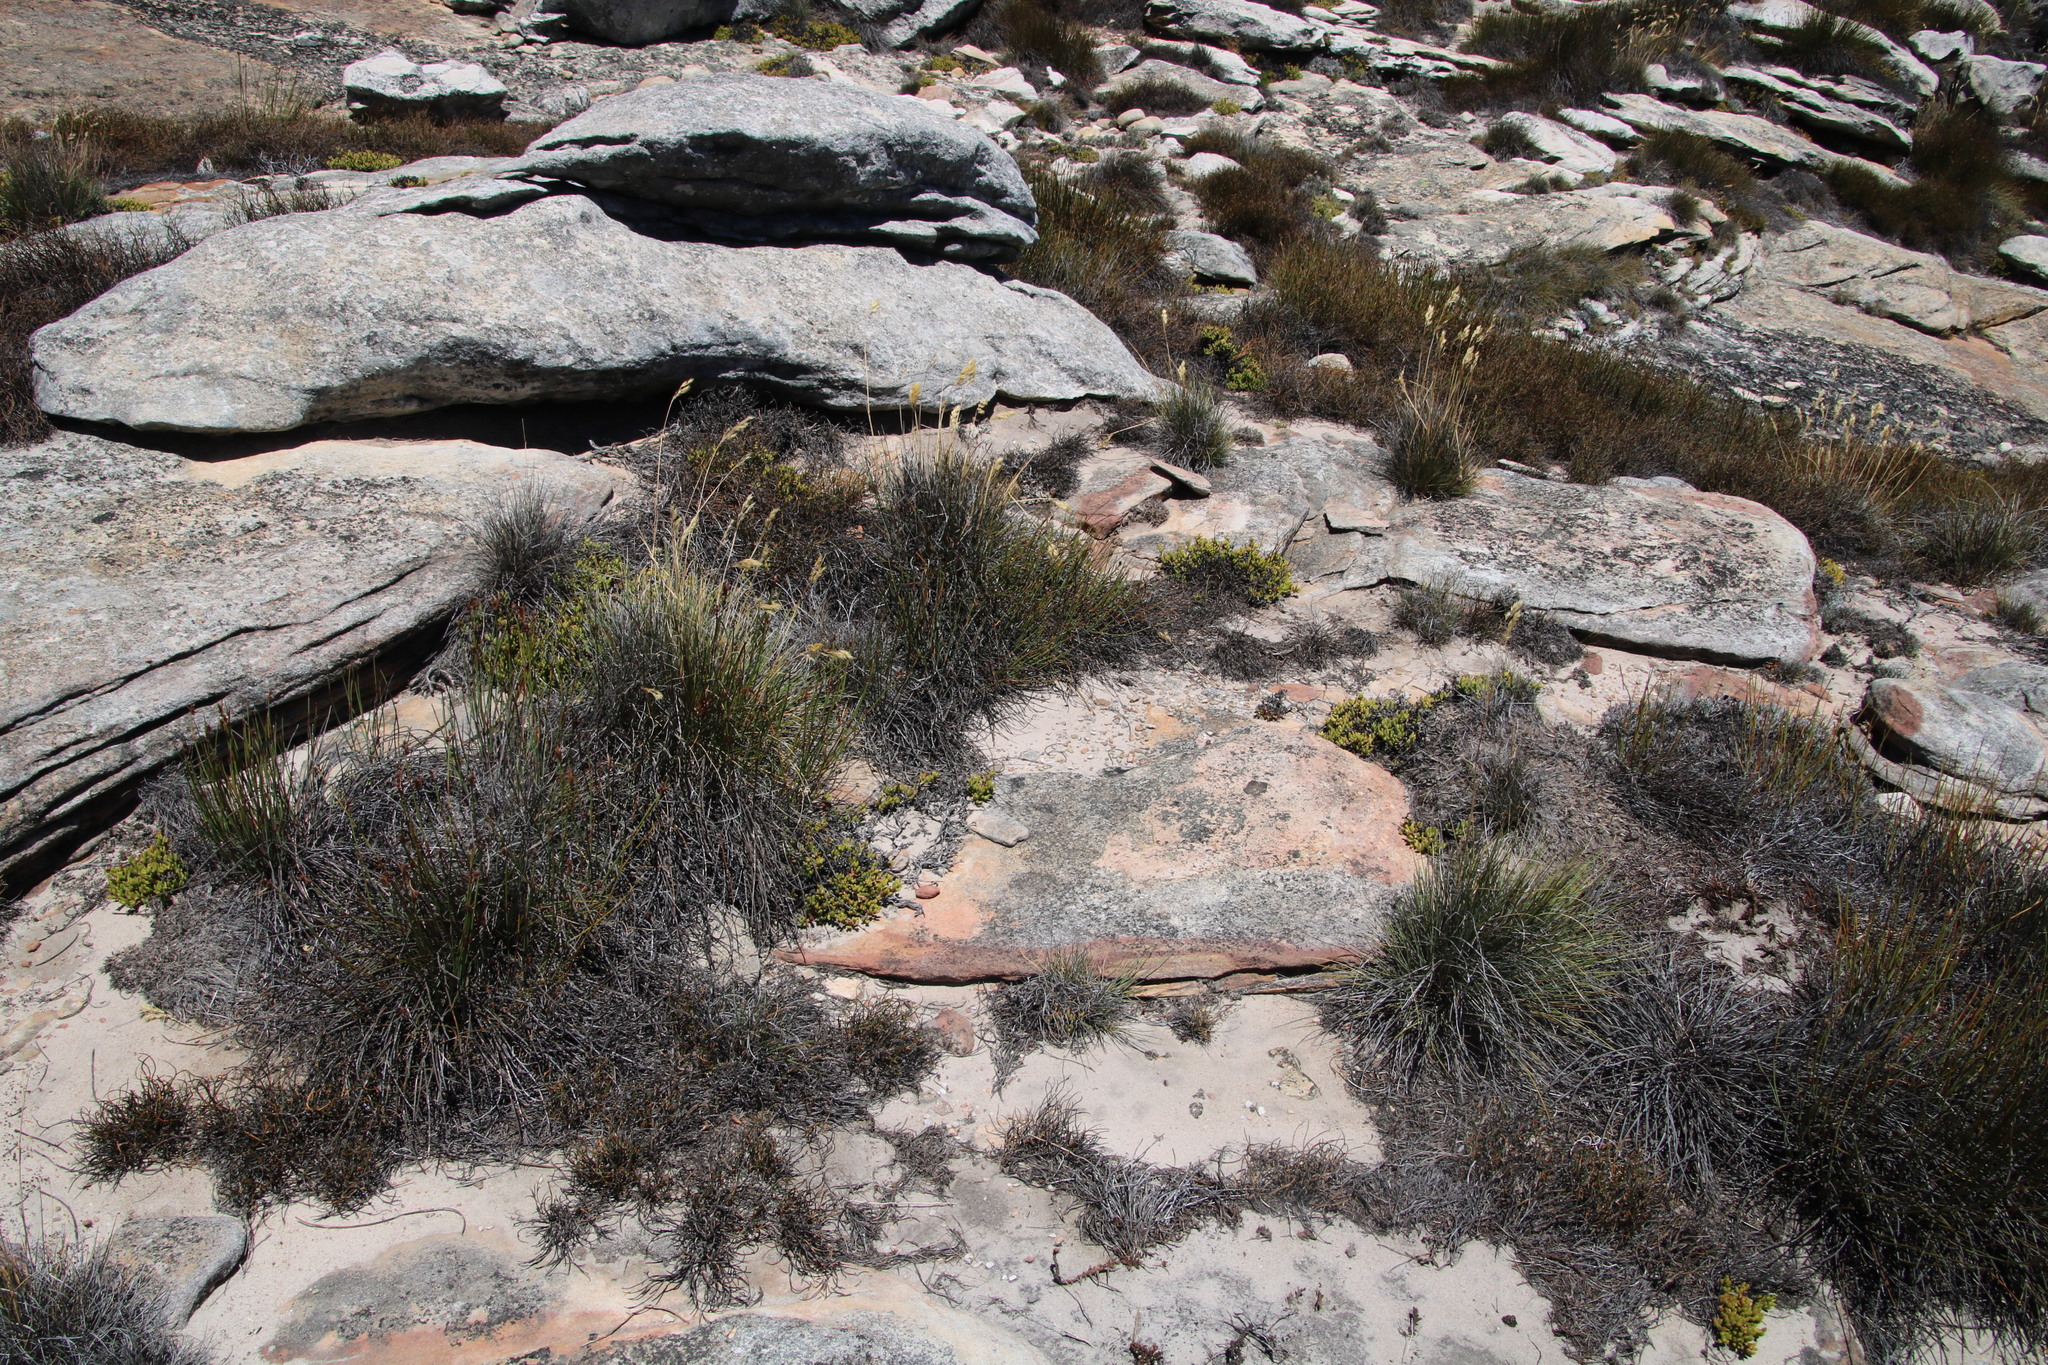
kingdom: Plantae
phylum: Tracheophyta
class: Magnoliopsida
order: Caryophyllales
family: Aizoaceae
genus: Esterhuysenia
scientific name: Esterhuysenia alpina
